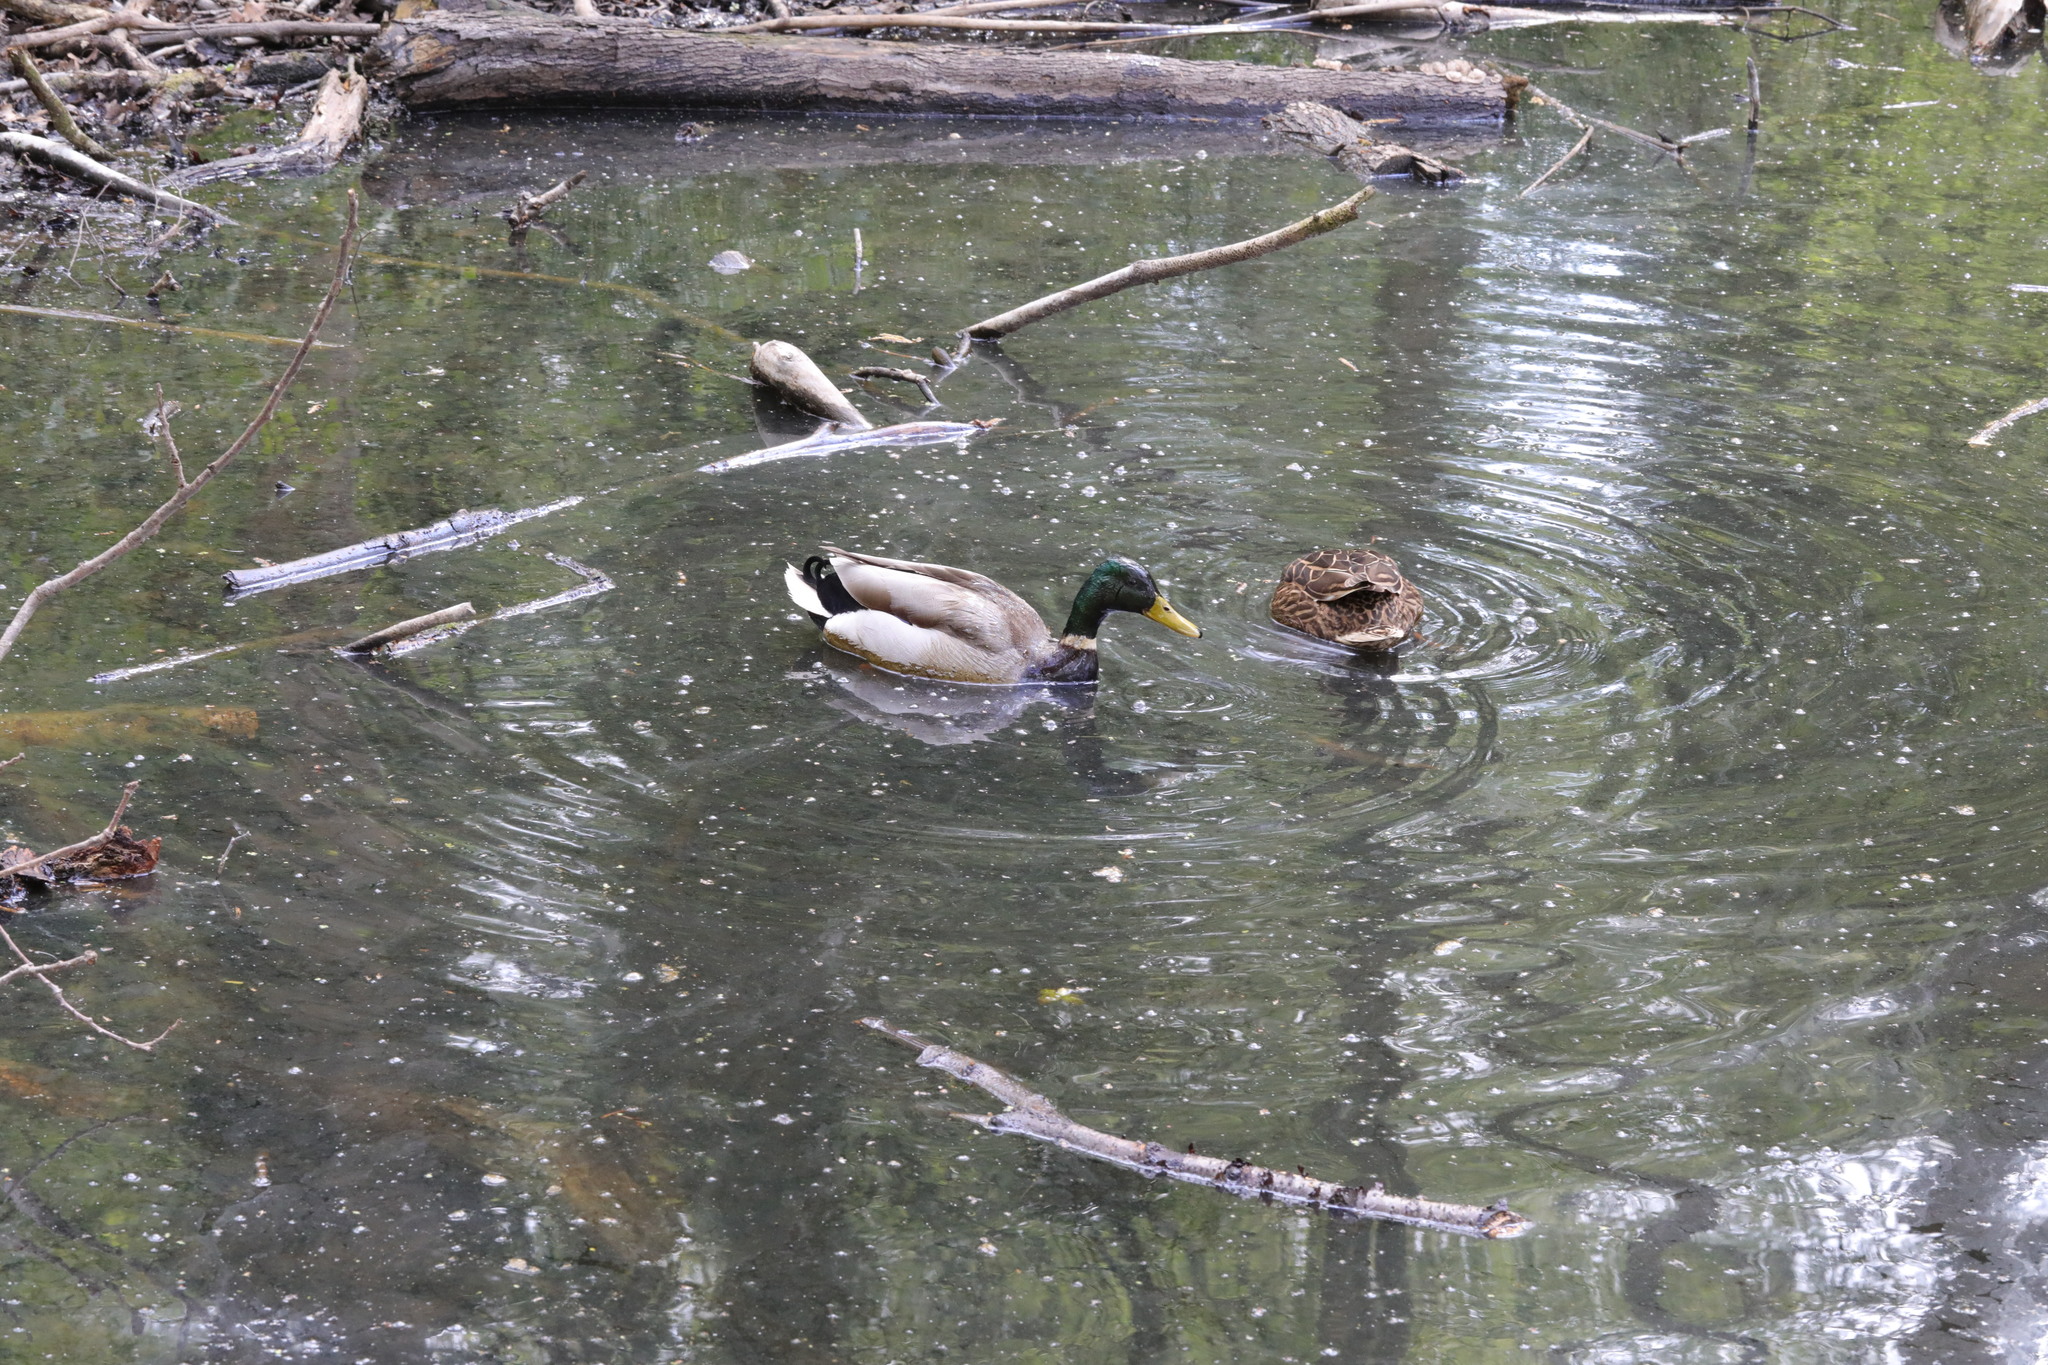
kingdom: Animalia
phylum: Chordata
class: Aves
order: Anseriformes
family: Anatidae
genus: Anas
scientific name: Anas platyrhynchos
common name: Mallard
